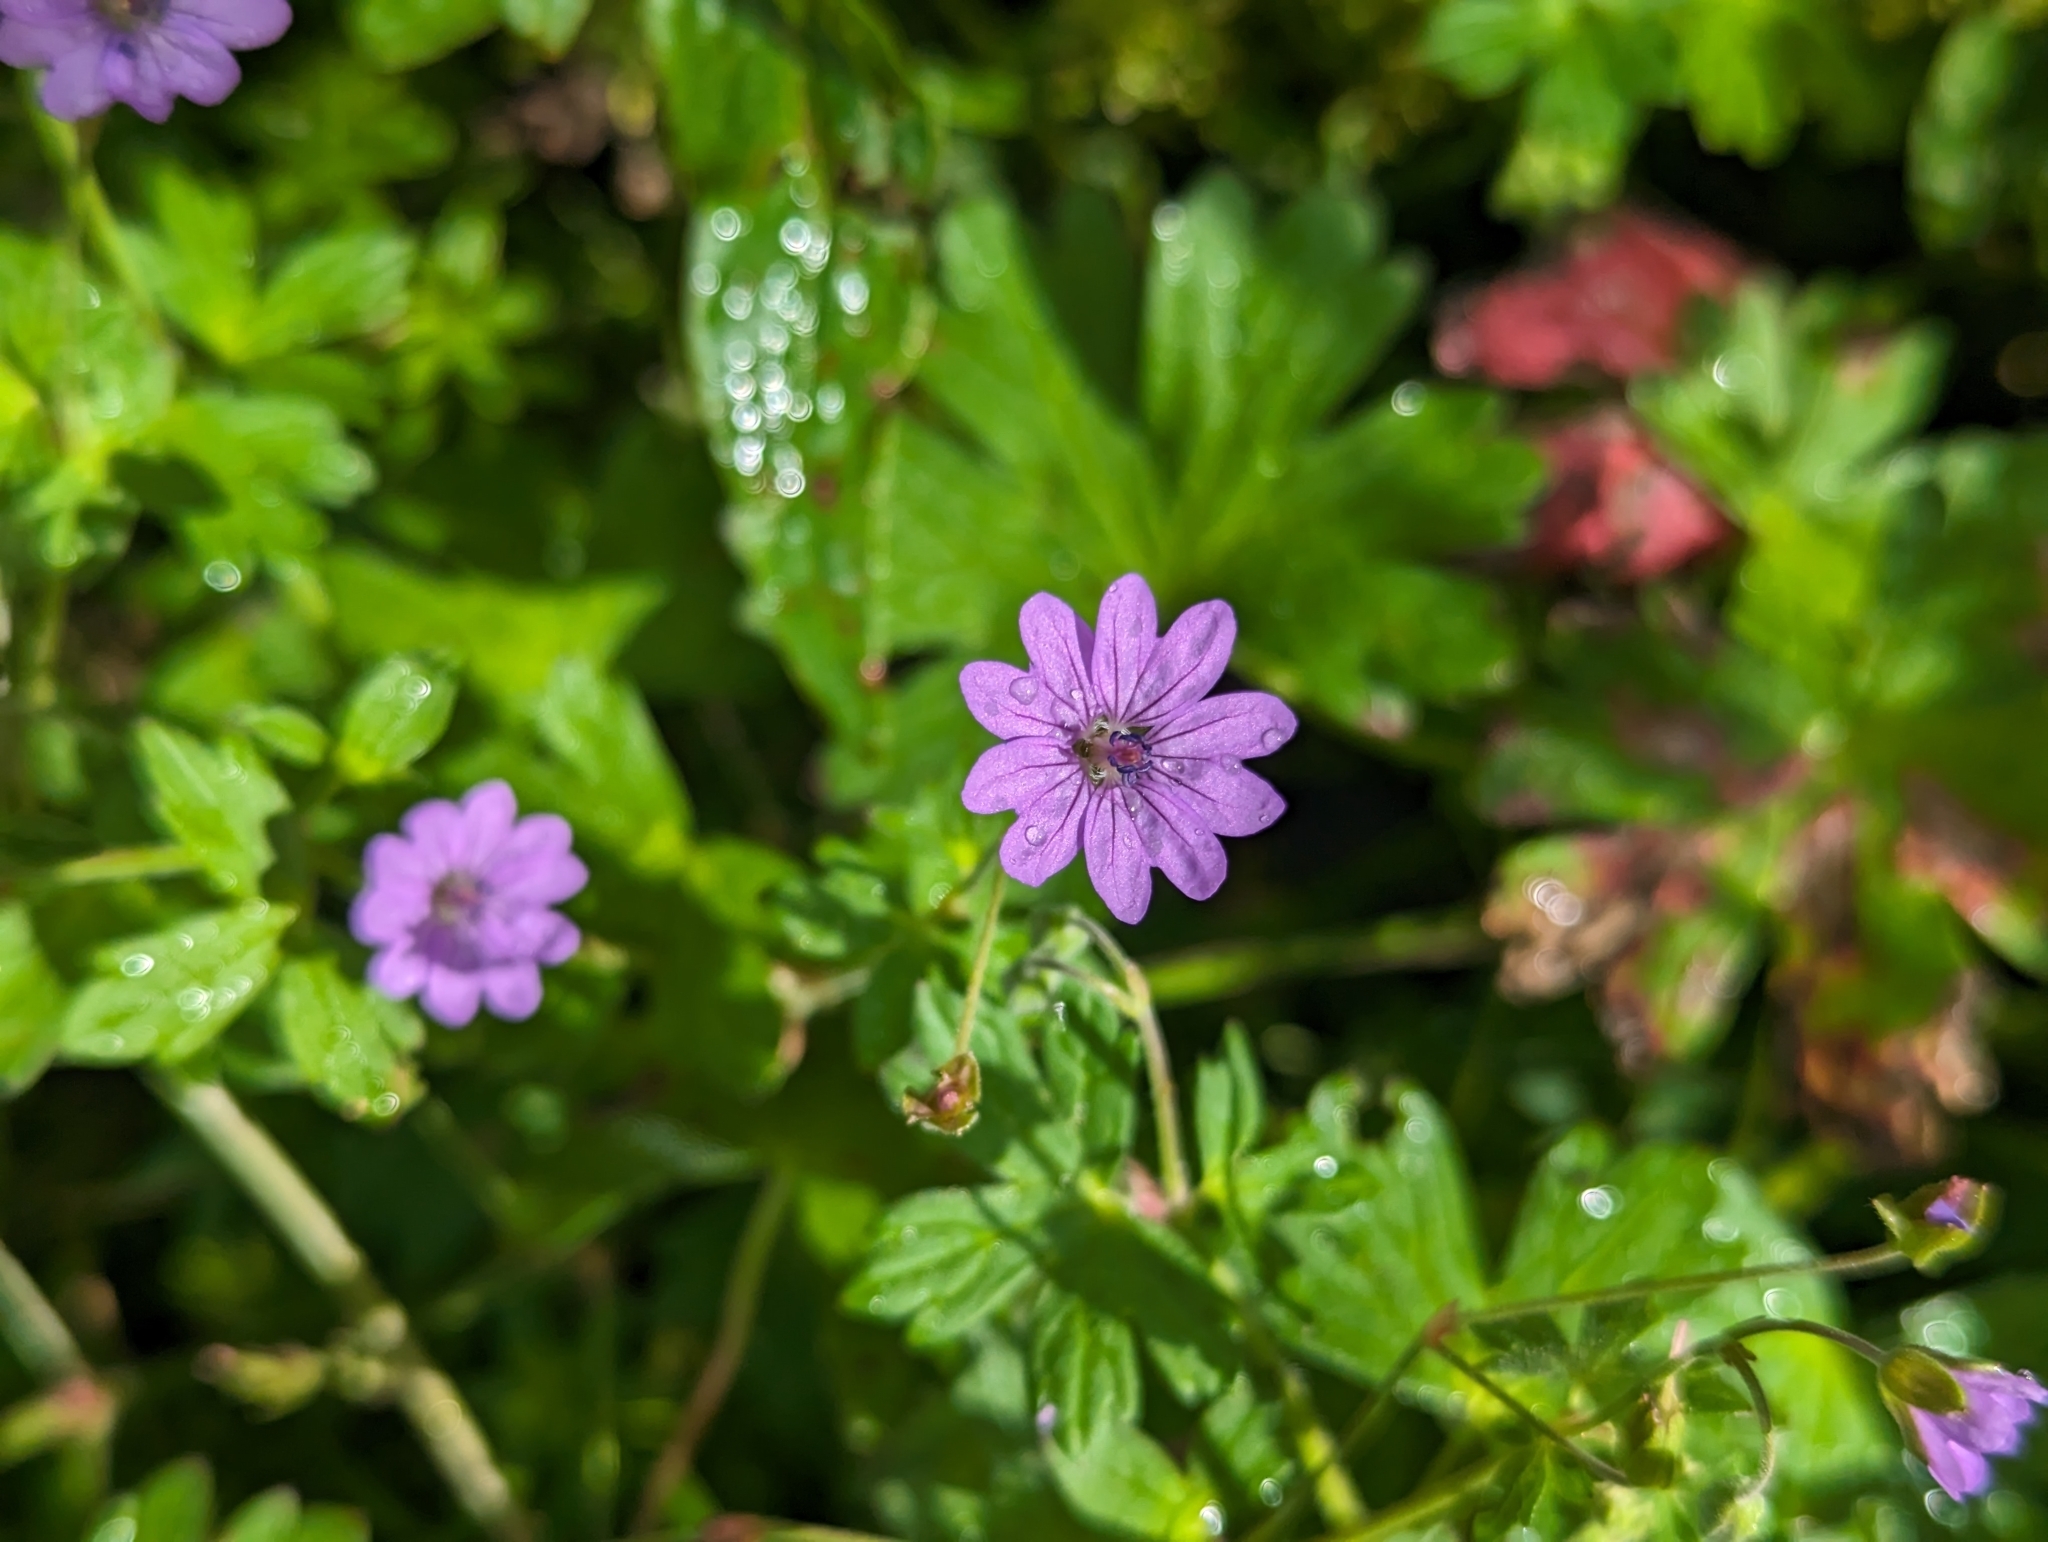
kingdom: Plantae
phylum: Tracheophyta
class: Magnoliopsida
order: Geraniales
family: Geraniaceae
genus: Geranium
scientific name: Geranium pyrenaicum
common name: Hedgerow crane's-bill
